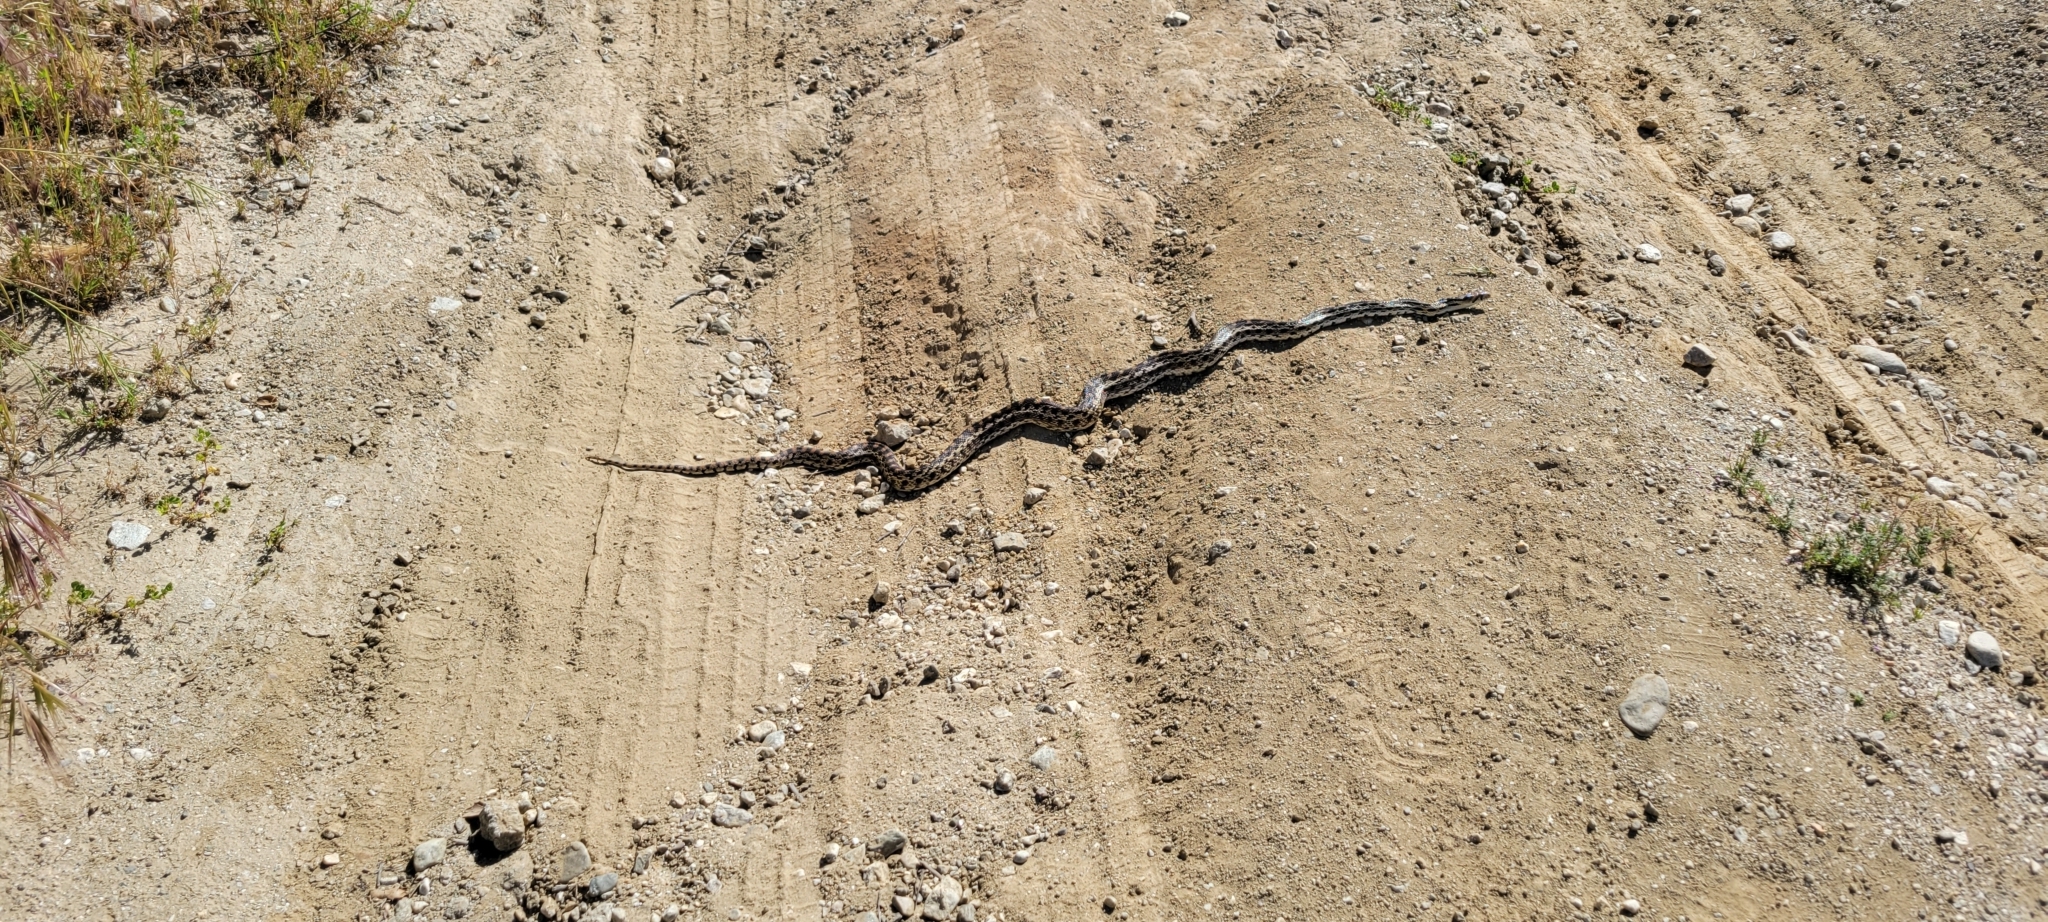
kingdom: Animalia
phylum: Chordata
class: Squamata
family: Colubridae
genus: Pituophis
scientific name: Pituophis catenifer
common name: Gopher snake
